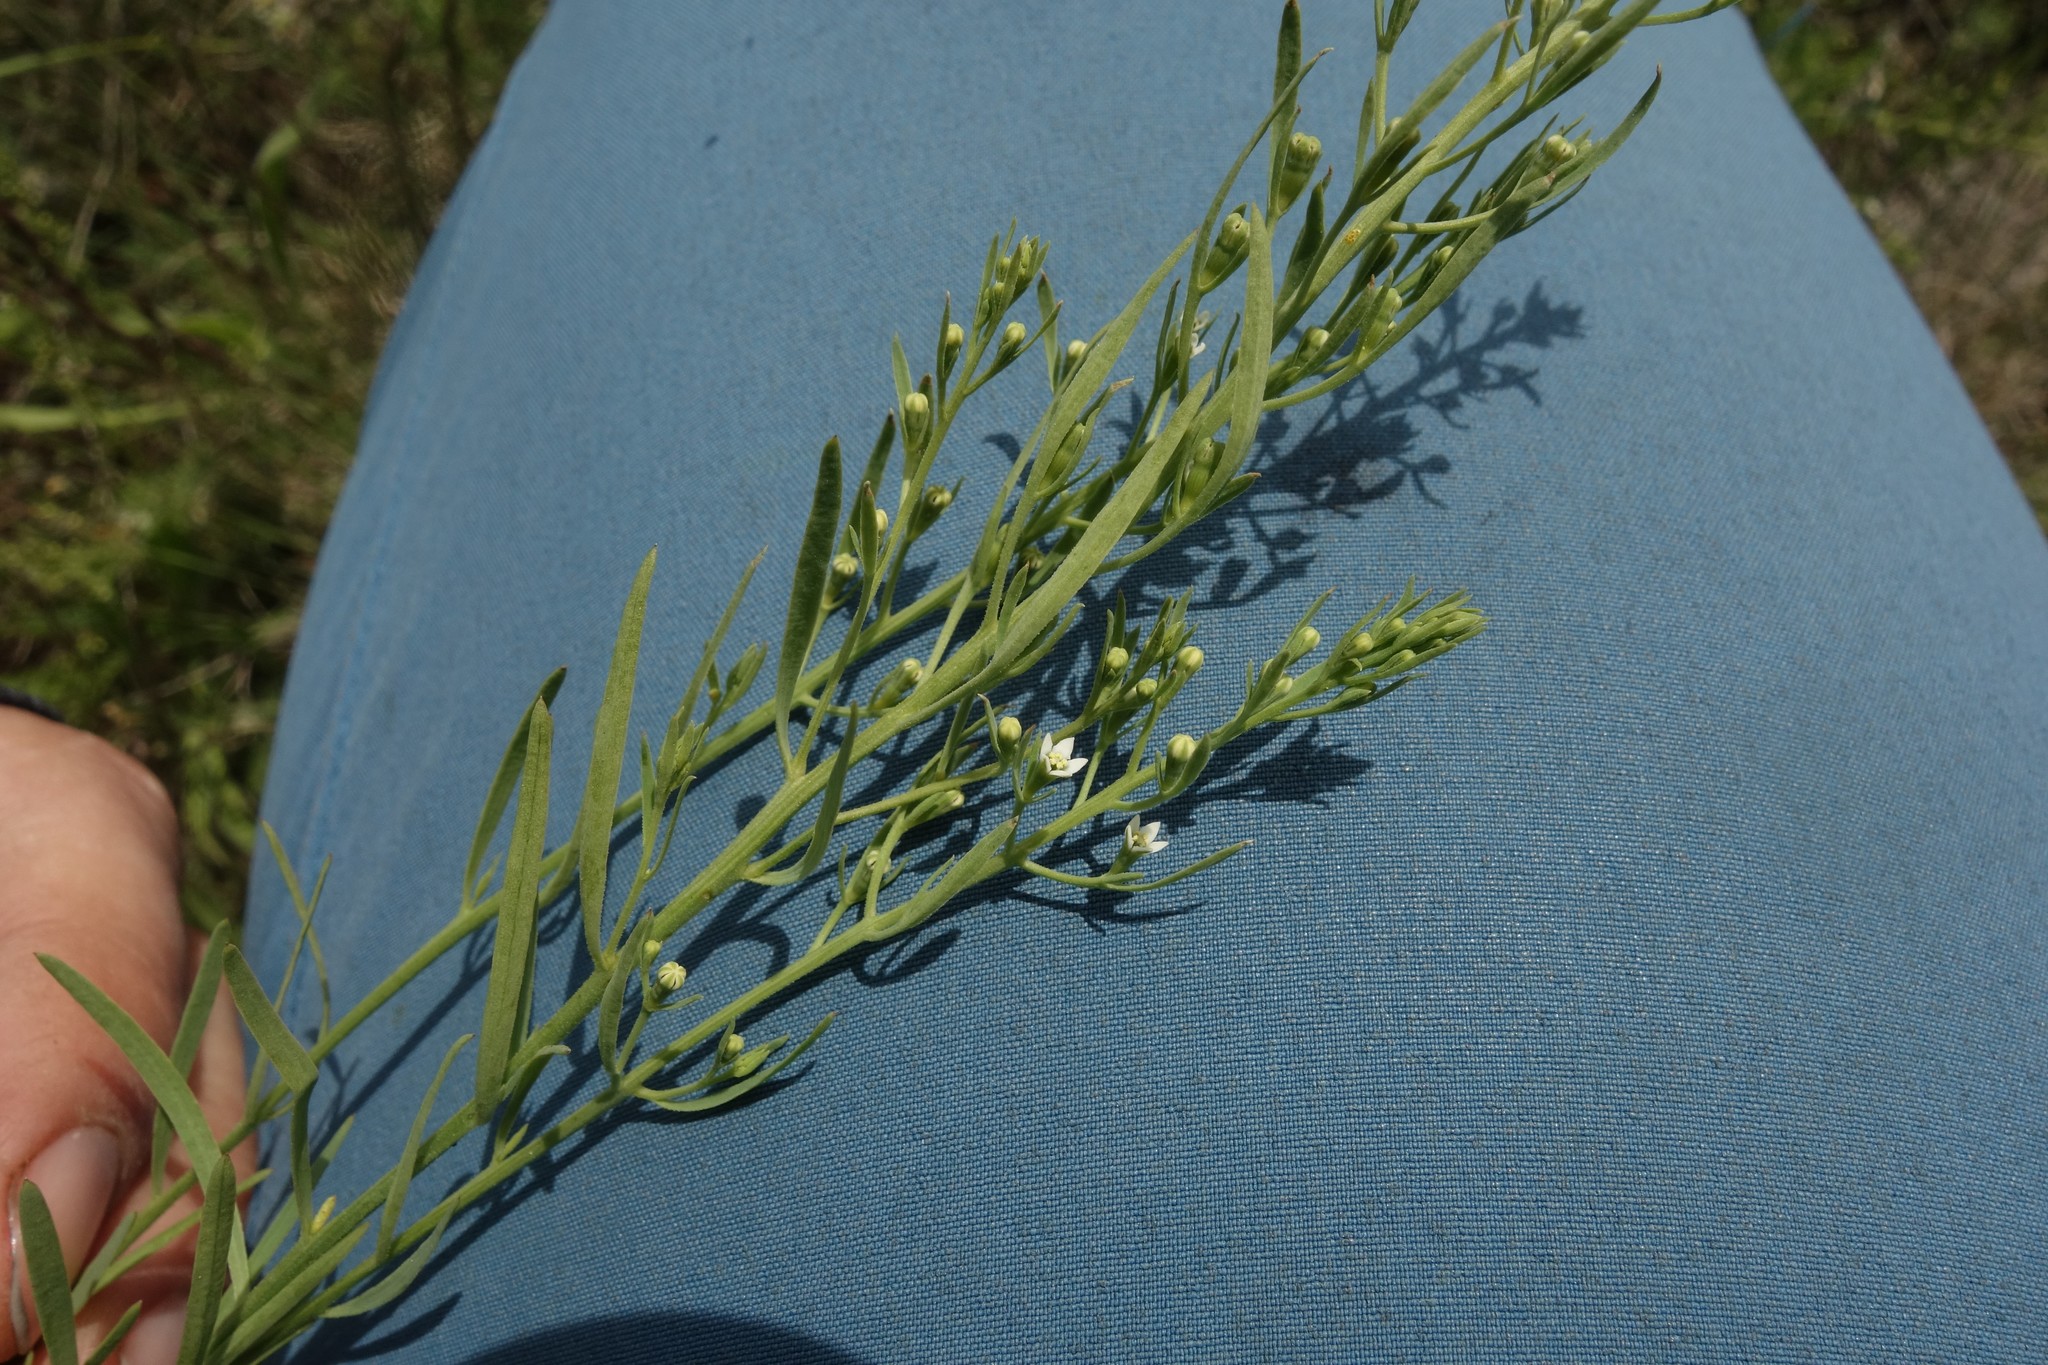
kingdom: Plantae
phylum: Tracheophyta
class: Magnoliopsida
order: Santalales
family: Thesiaceae
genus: Thesium
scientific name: Thesium ramosum
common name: Field thesium
